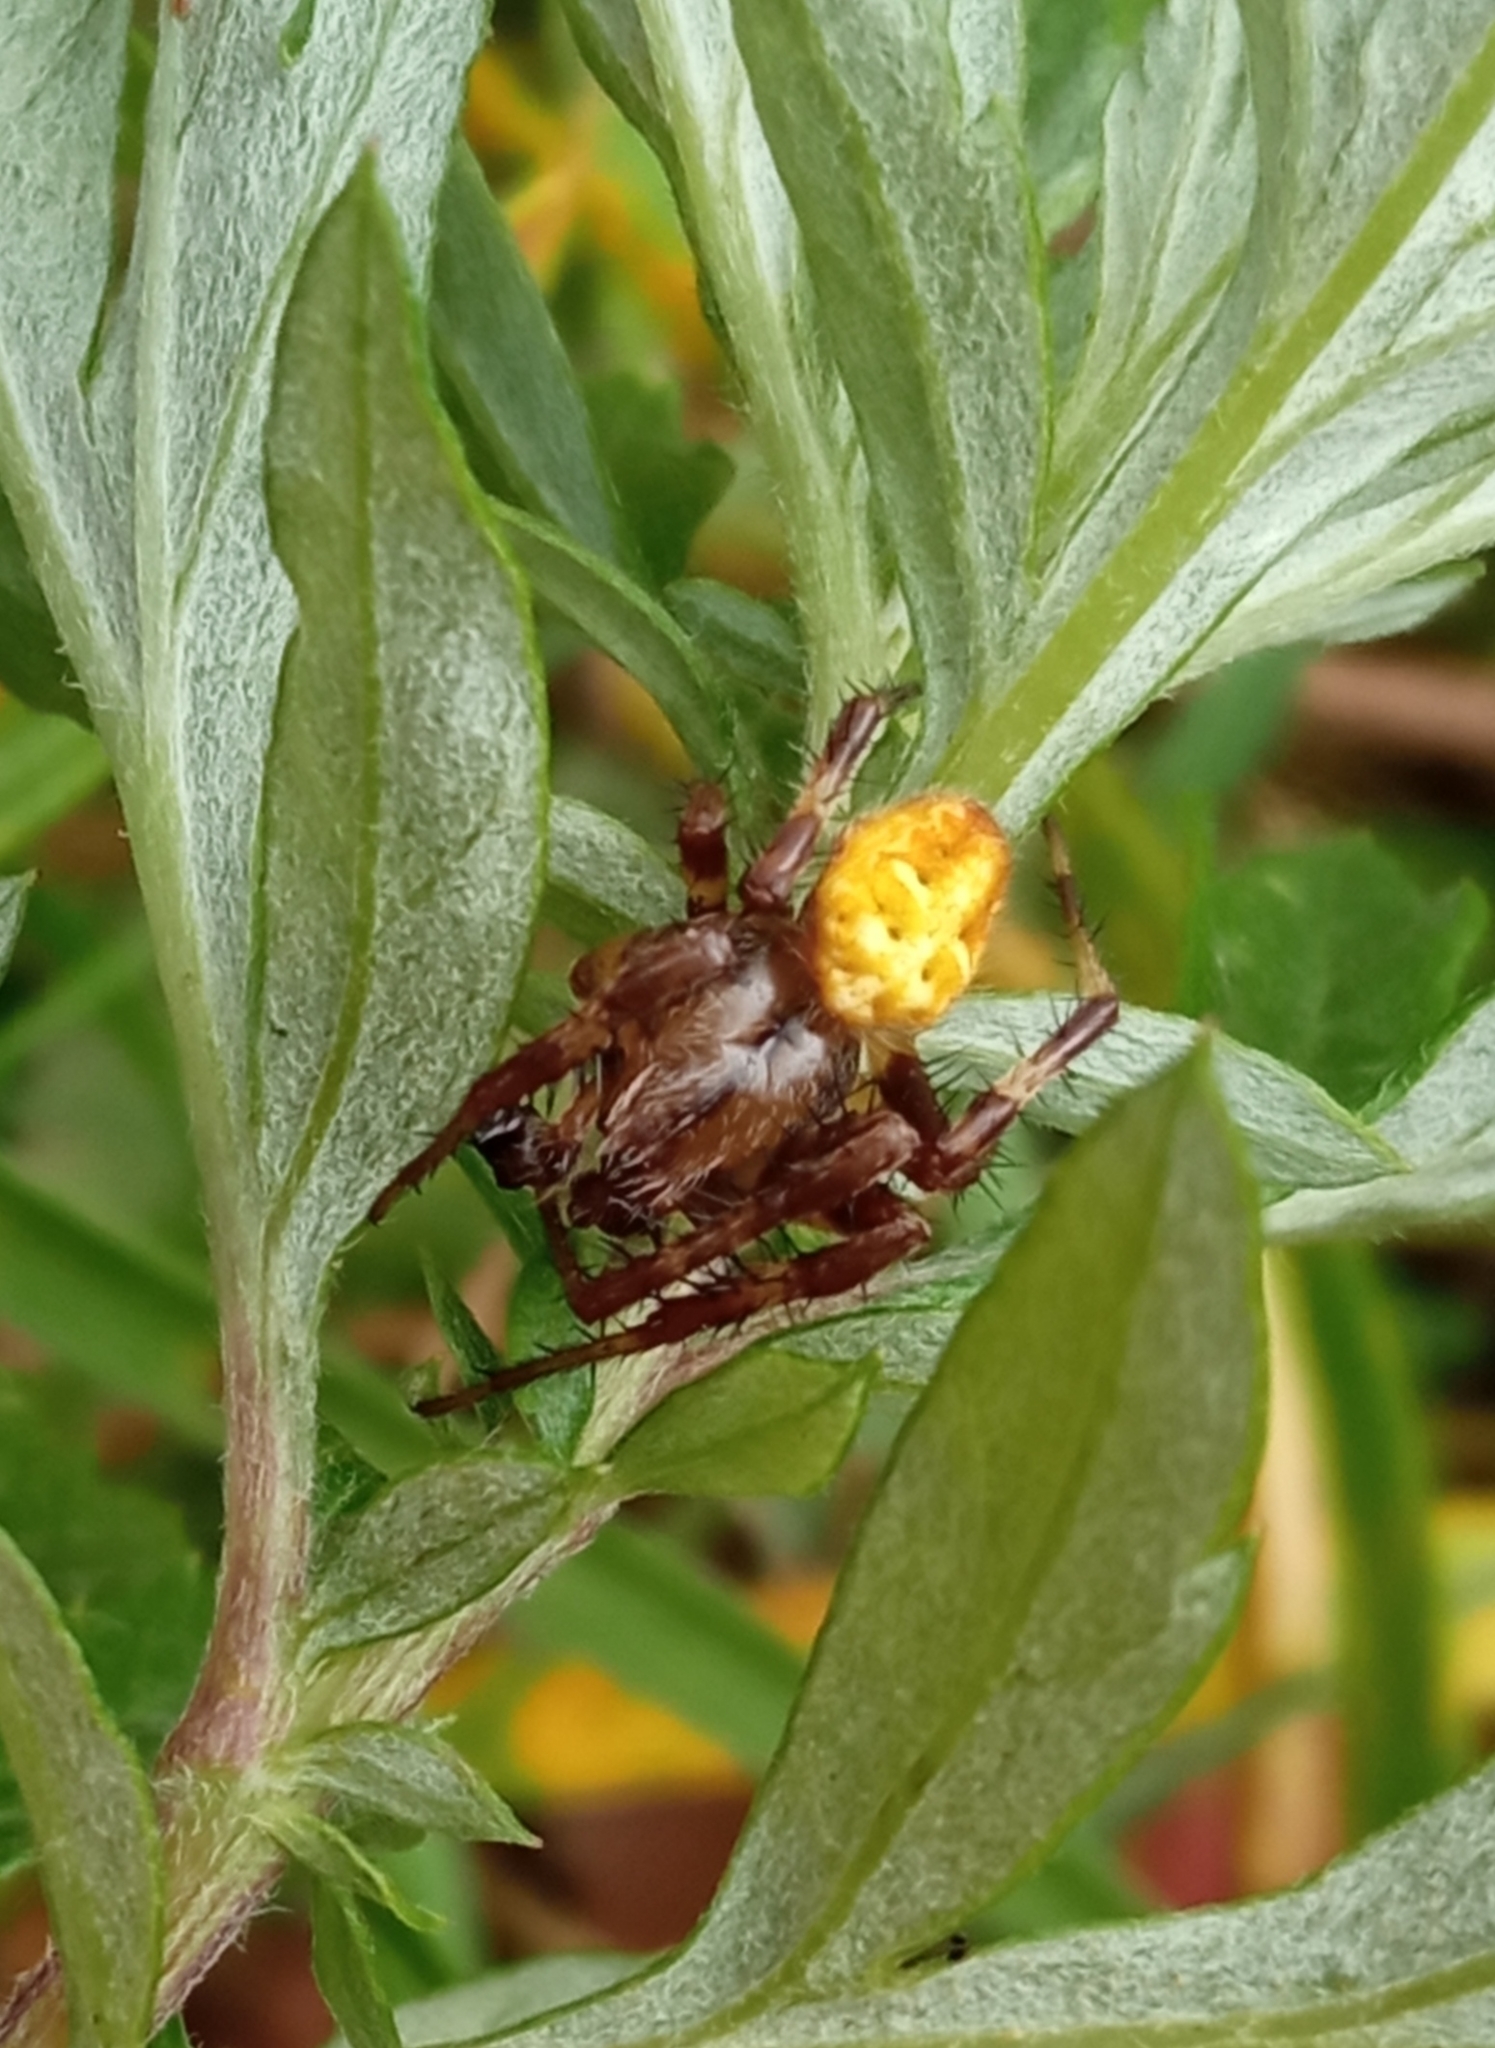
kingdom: Animalia
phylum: Arthropoda
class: Arachnida
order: Araneae
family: Araneidae
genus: Araneus
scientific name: Araneus quadratus
